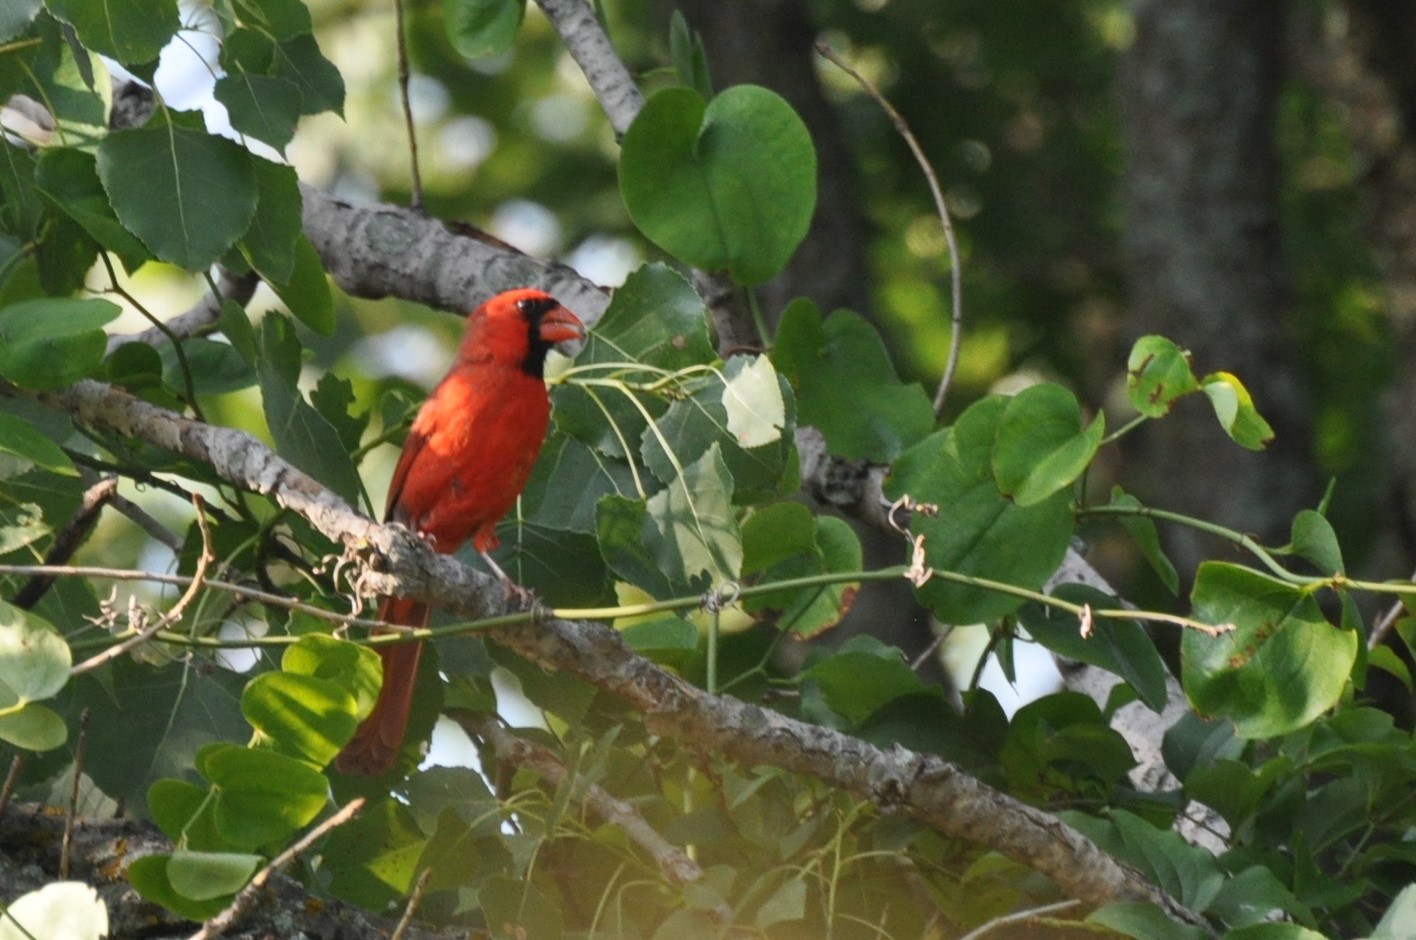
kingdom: Animalia
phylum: Chordata
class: Aves
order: Passeriformes
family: Cardinalidae
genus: Cardinalis
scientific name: Cardinalis cardinalis
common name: Northern cardinal
